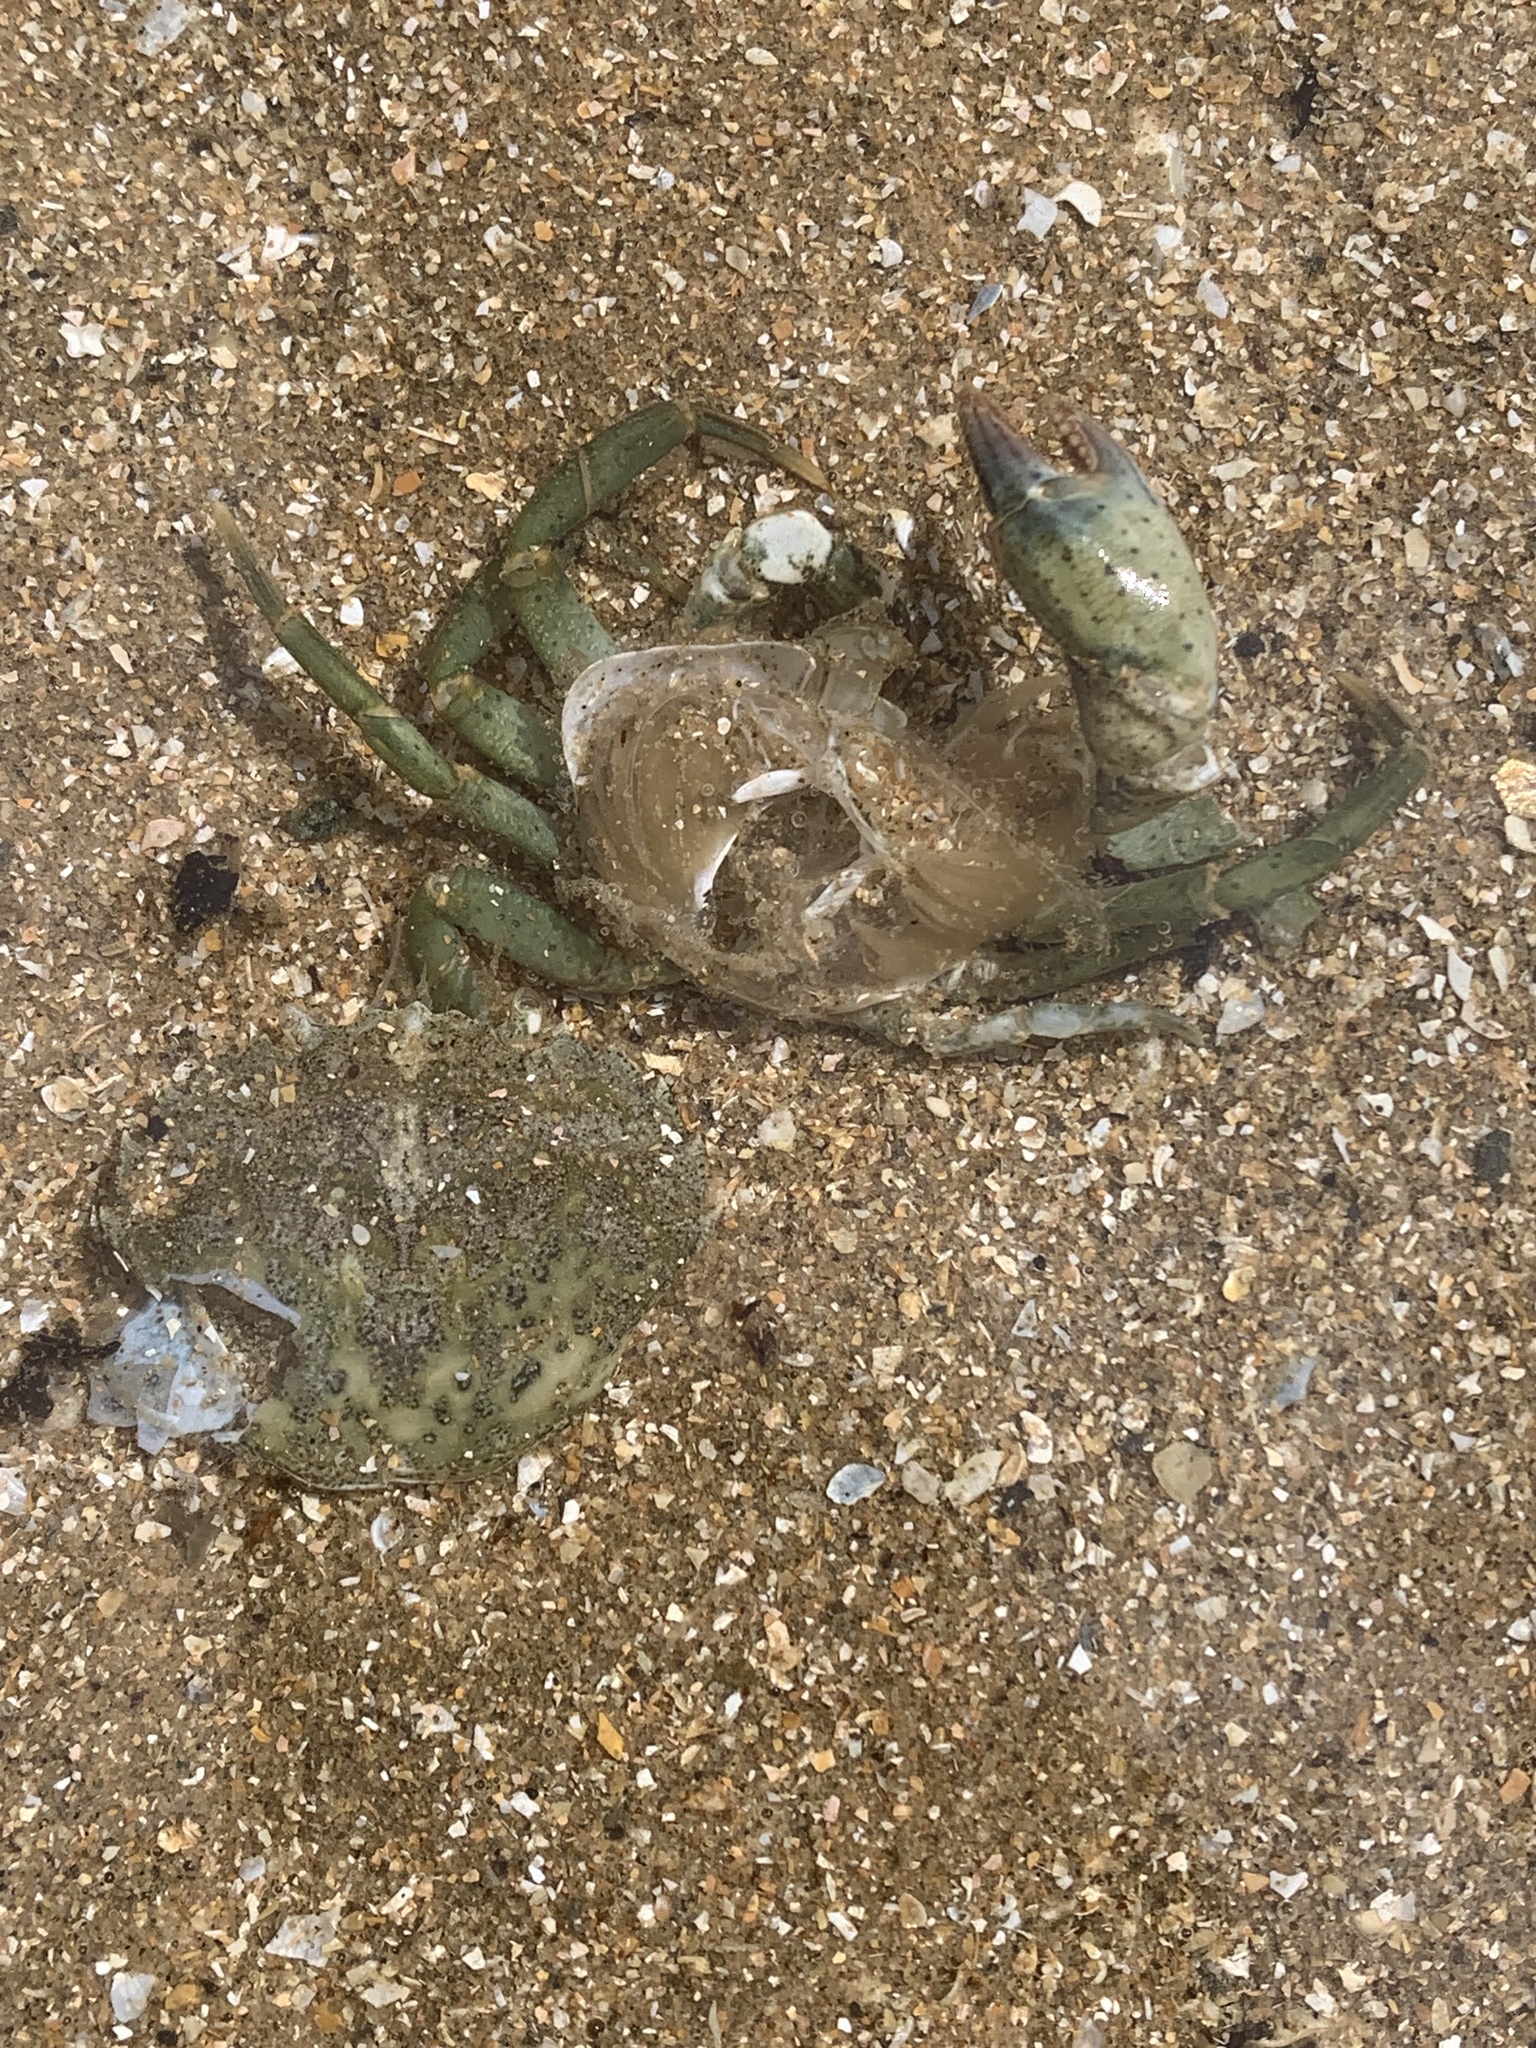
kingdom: Animalia
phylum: Arthropoda
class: Malacostraca
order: Decapoda
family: Carcinidae
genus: Carcinus
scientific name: Carcinus maenas
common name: European green crab
